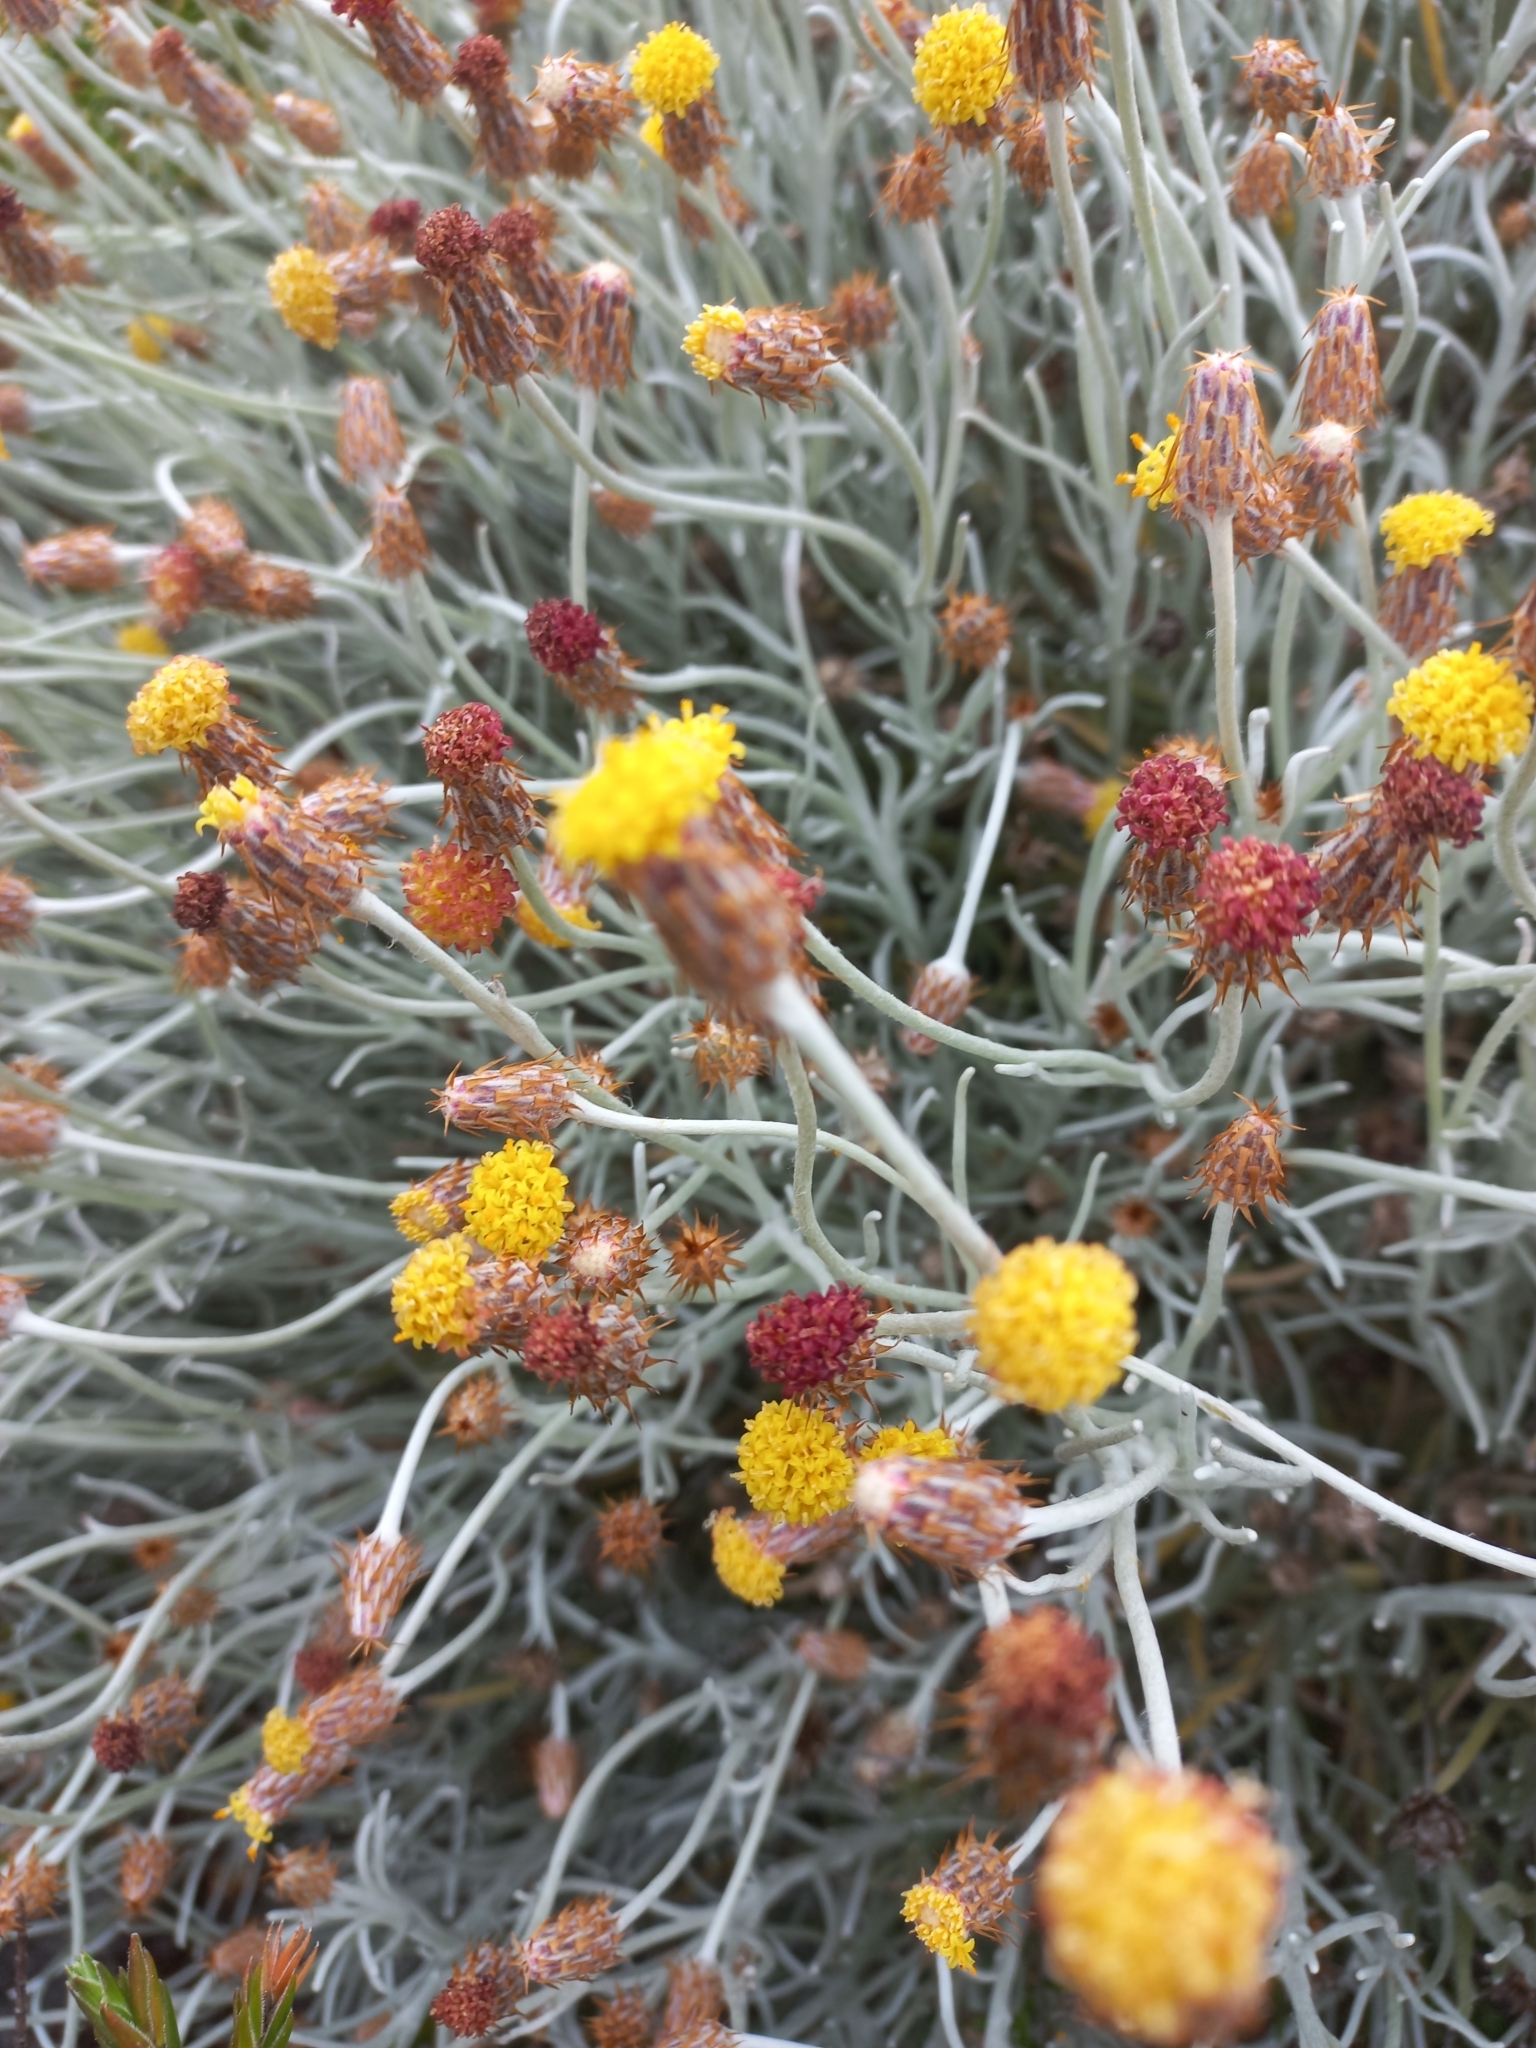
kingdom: Plantae
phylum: Tracheophyta
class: Magnoliopsida
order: Asterales
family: Asteraceae
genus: Syncarpha
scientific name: Syncarpha gnaphaloides
